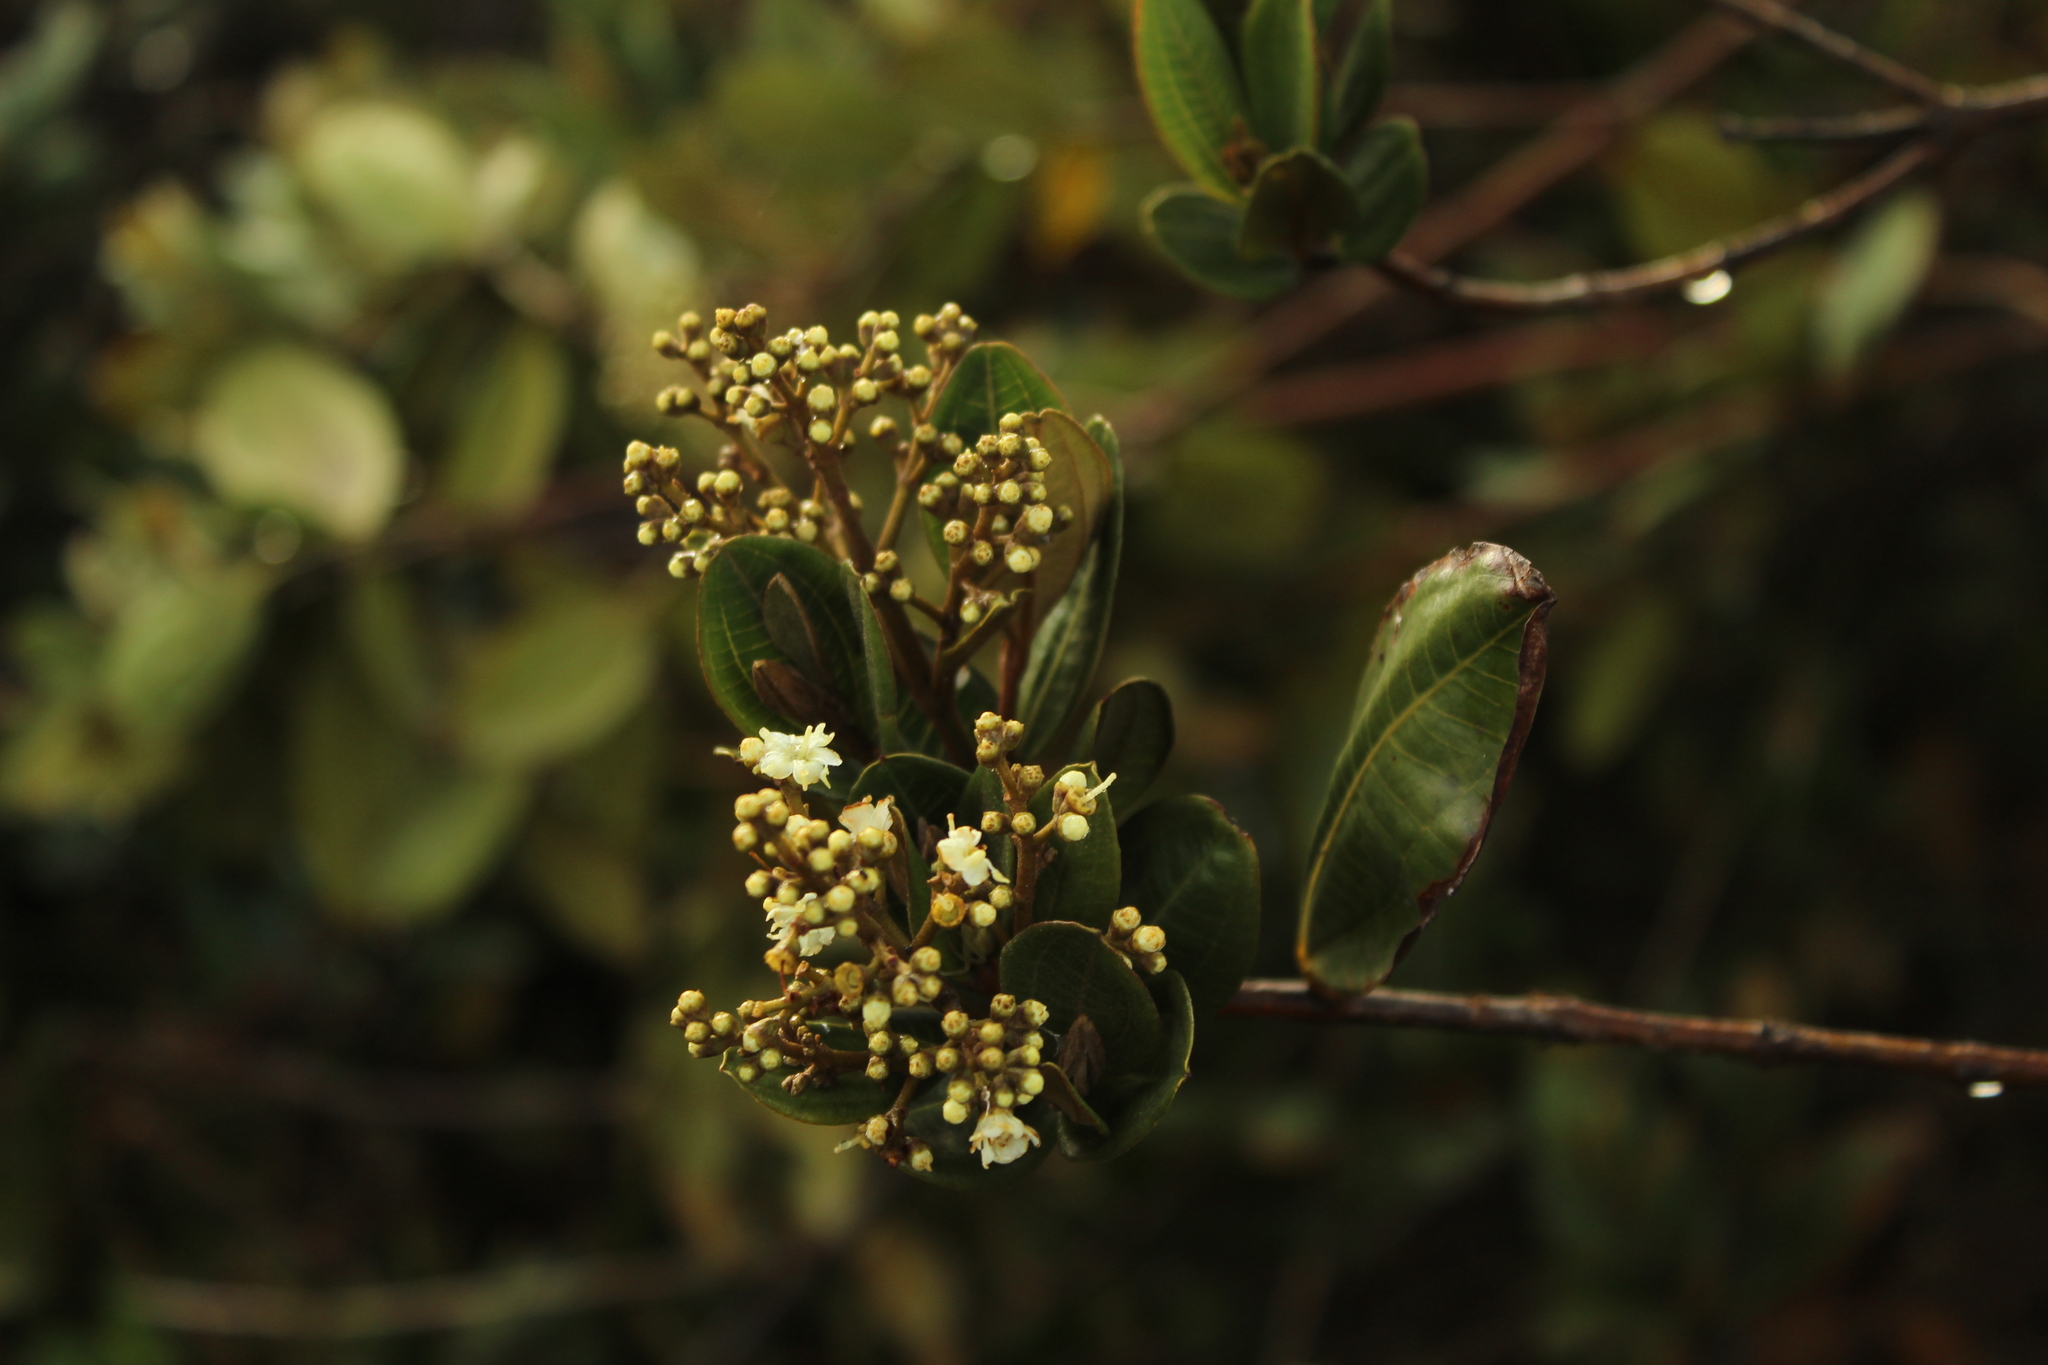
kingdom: Plantae
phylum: Tracheophyta
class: Magnoliopsida
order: Myrtales
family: Melastomataceae
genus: Miconia
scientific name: Miconia squamulosa
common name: Squamulose maya
